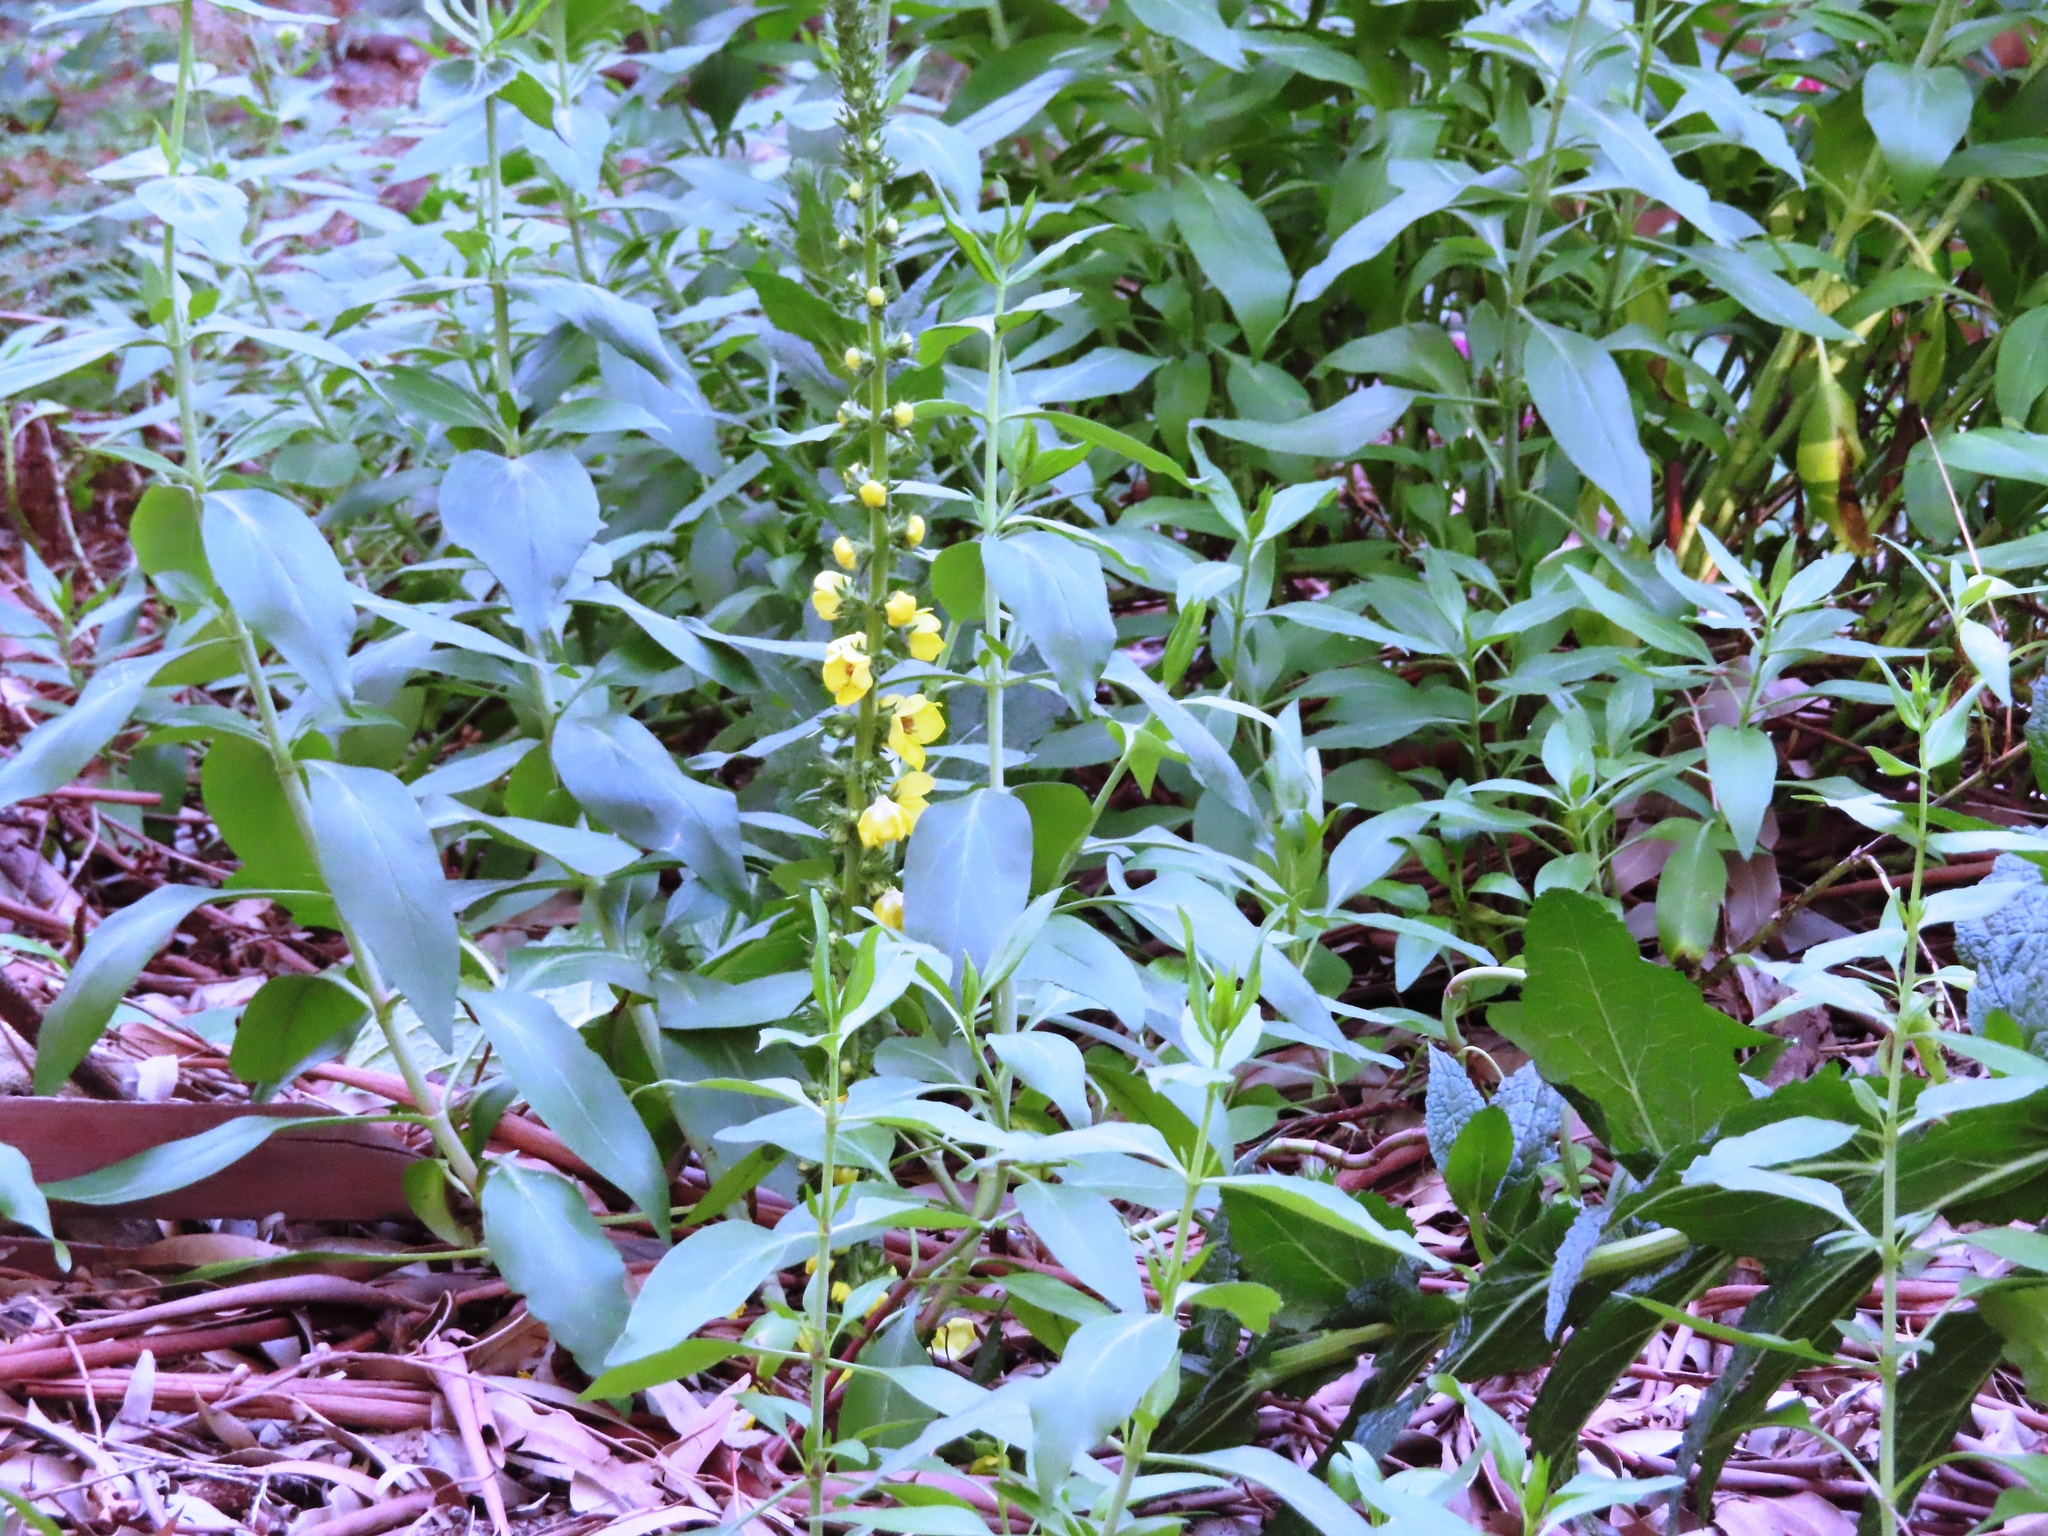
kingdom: Plantae
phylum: Tracheophyta
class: Magnoliopsida
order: Lamiales
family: Scrophulariaceae
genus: Verbascum
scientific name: Verbascum virgatum
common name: Twiggy mullein
